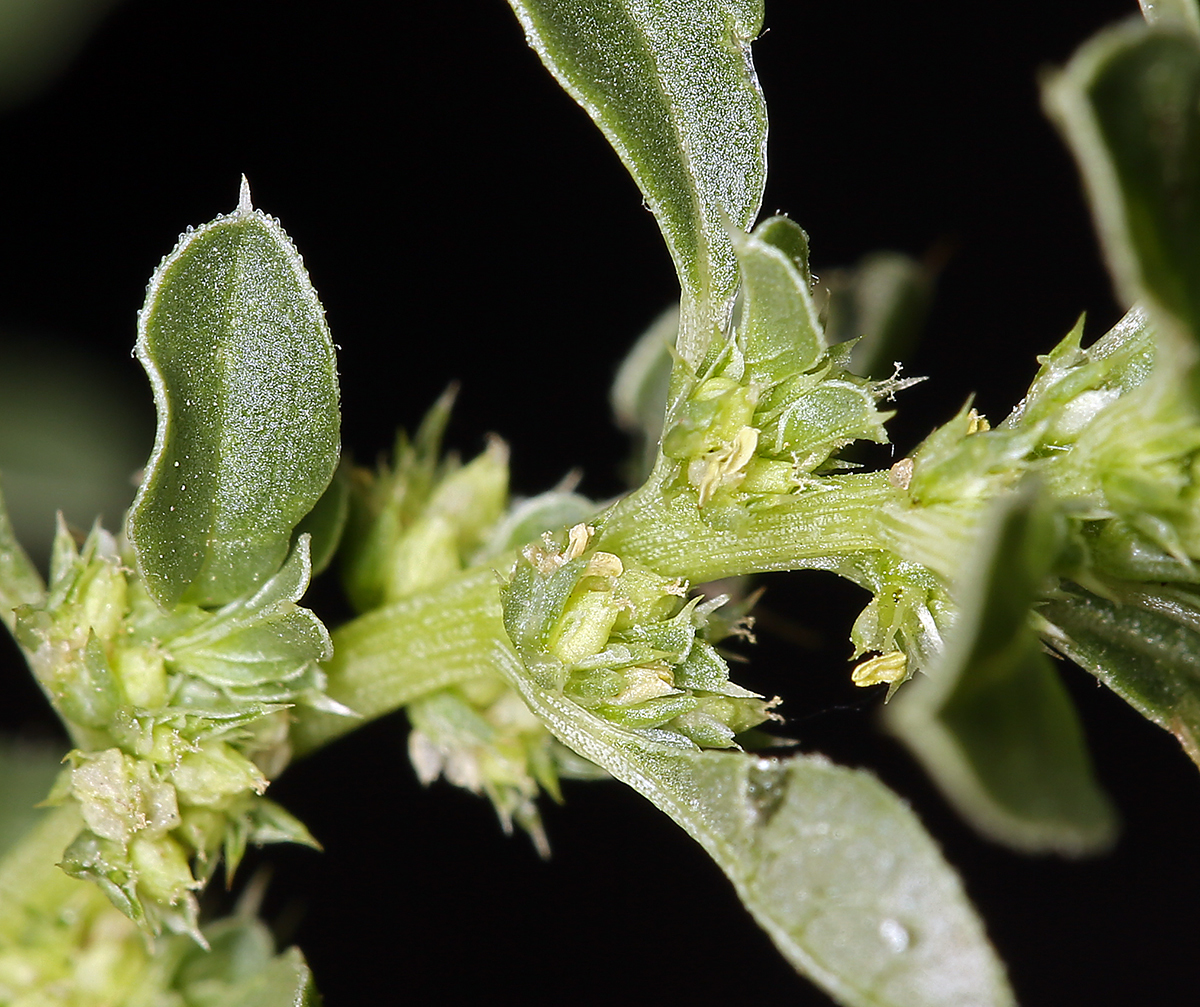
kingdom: Plantae
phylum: Tracheophyta
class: Magnoliopsida
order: Caryophyllales
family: Amaranthaceae
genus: Amaranthus
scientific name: Amaranthus albus
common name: White pigweed
